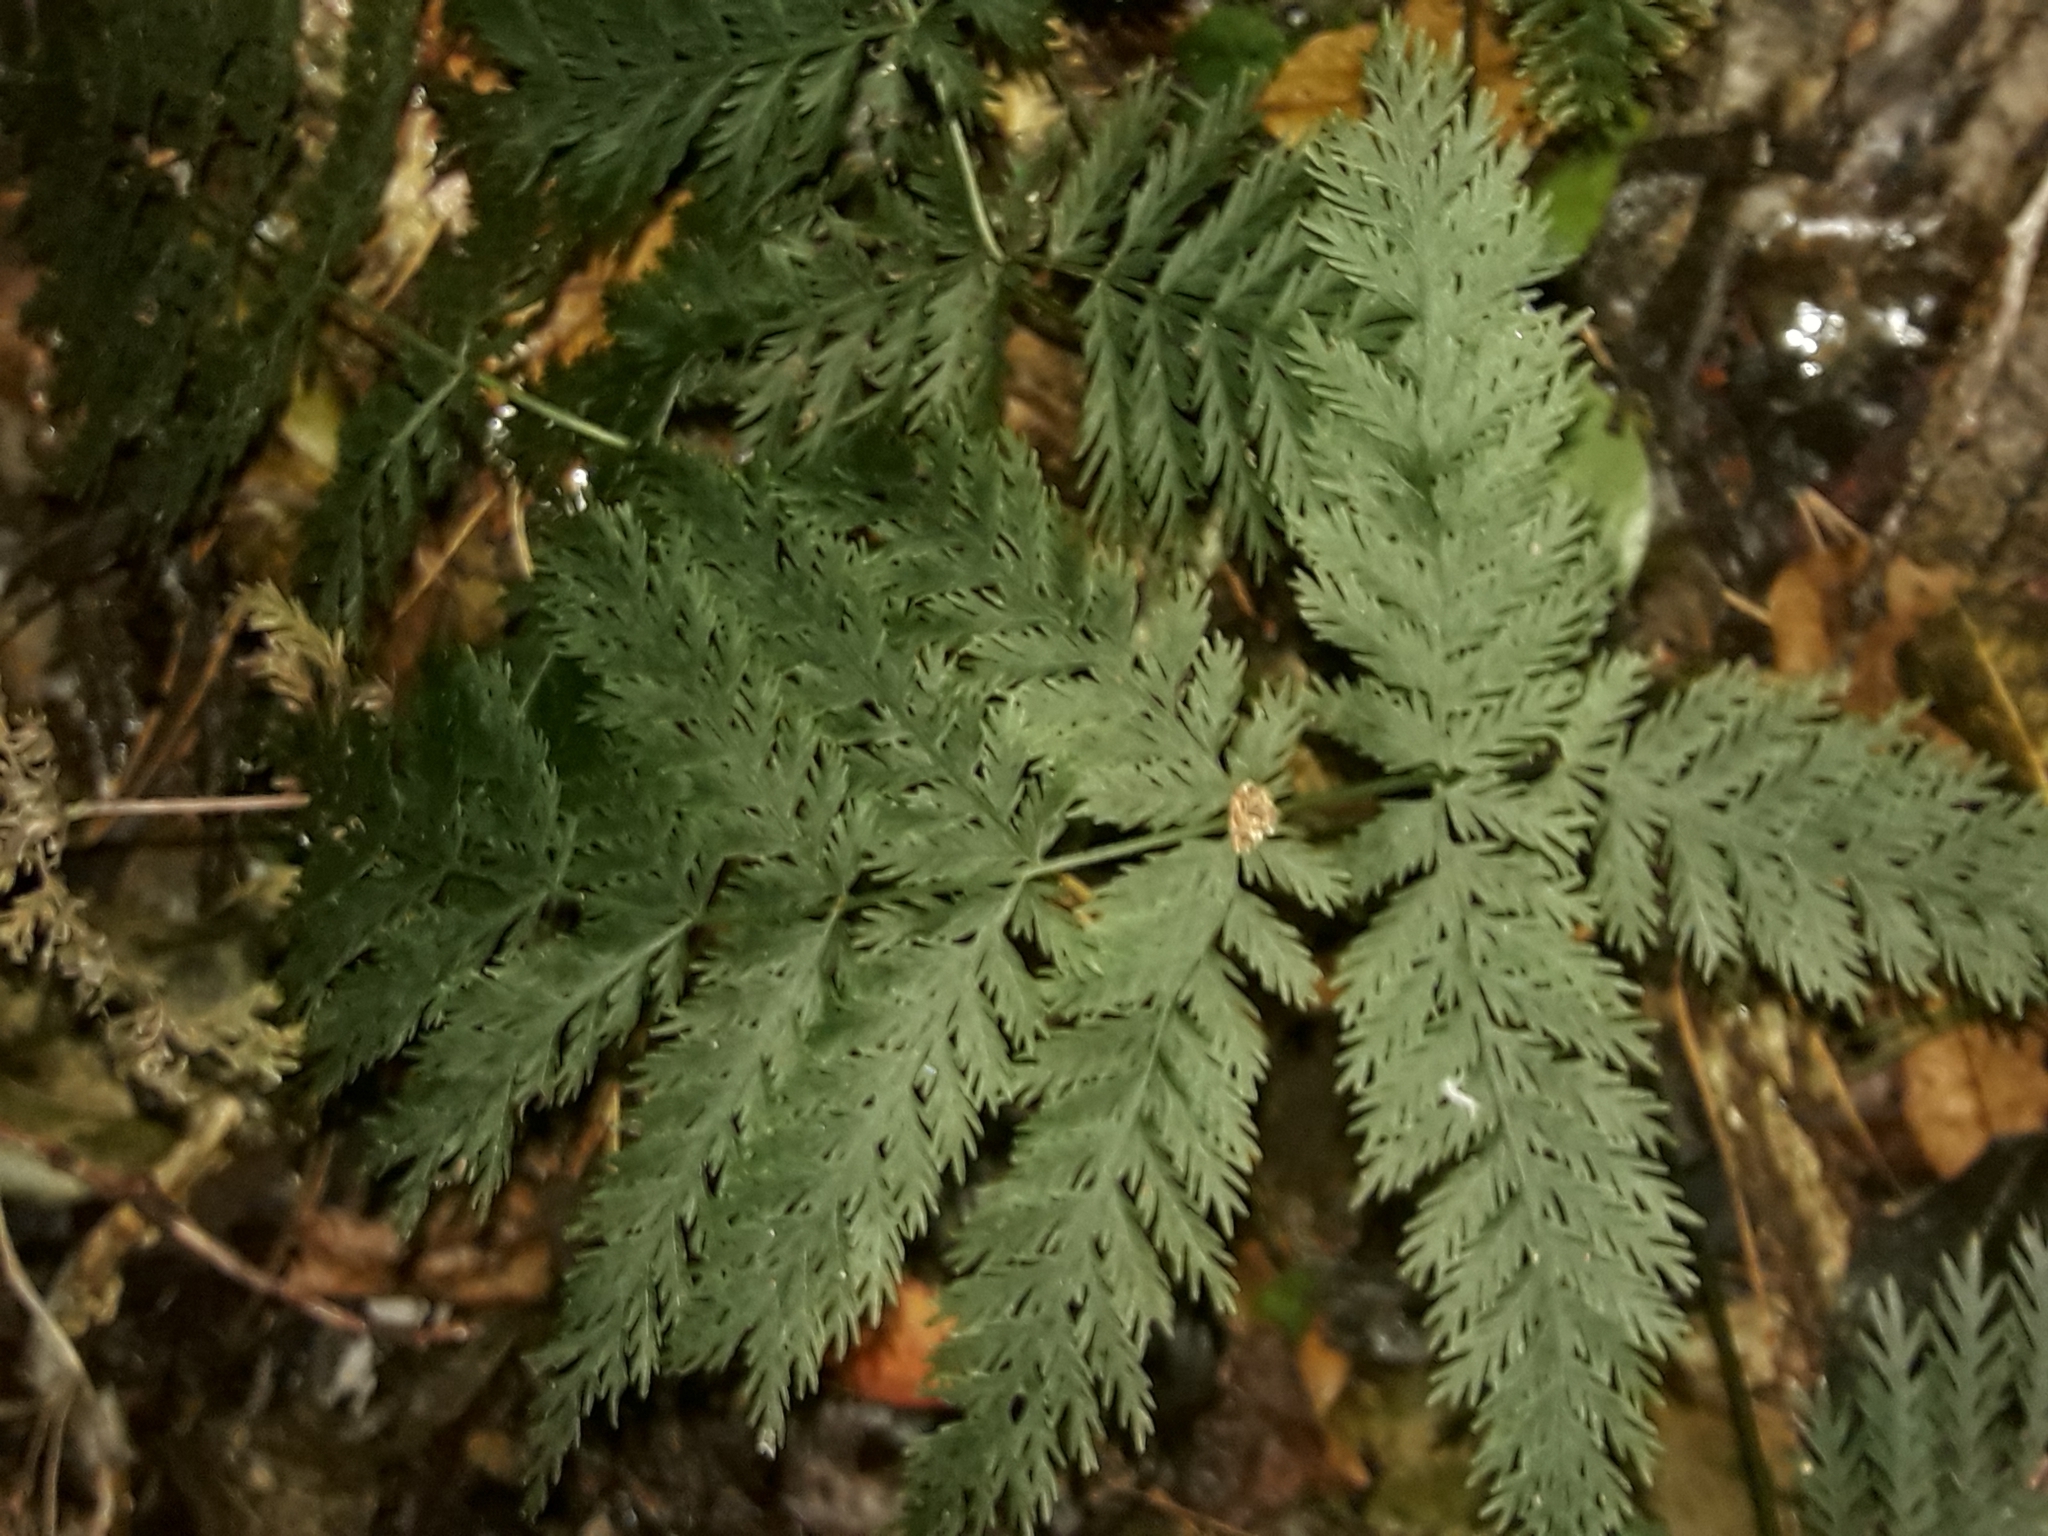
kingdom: Plantae
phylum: Tracheophyta
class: Polypodiopsida
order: Osmundales
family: Osmundaceae
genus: Leptopteris
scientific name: Leptopteris hymenophylloides
